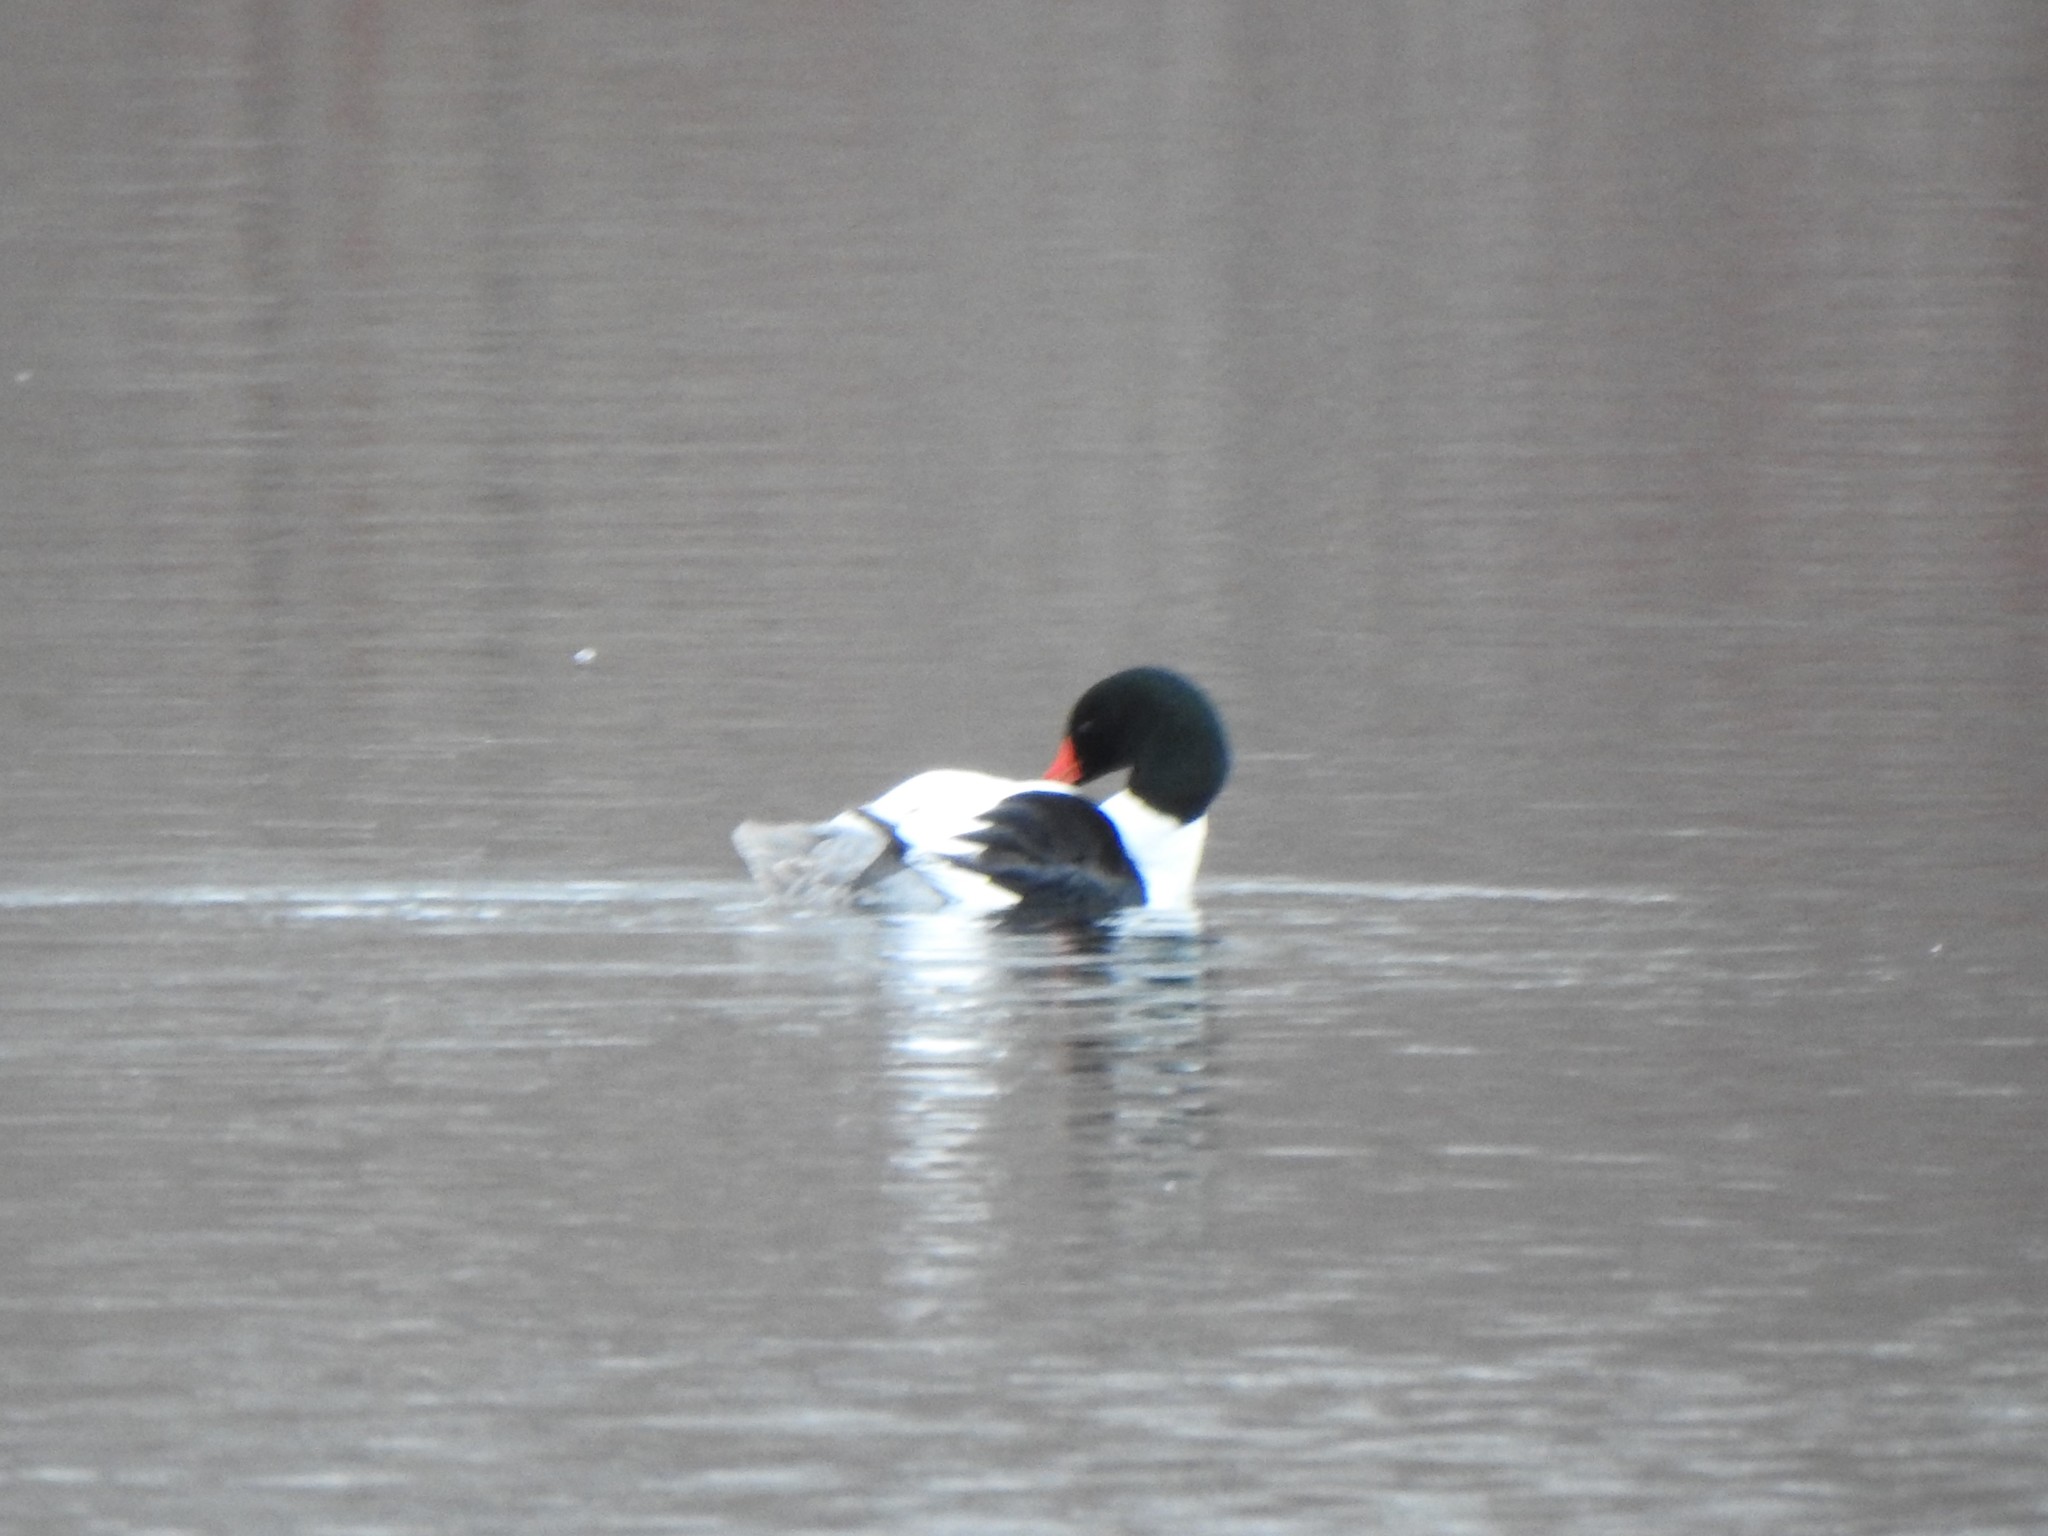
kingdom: Animalia
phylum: Chordata
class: Aves
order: Anseriformes
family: Anatidae
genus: Mergus
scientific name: Mergus merganser
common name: Common merganser
